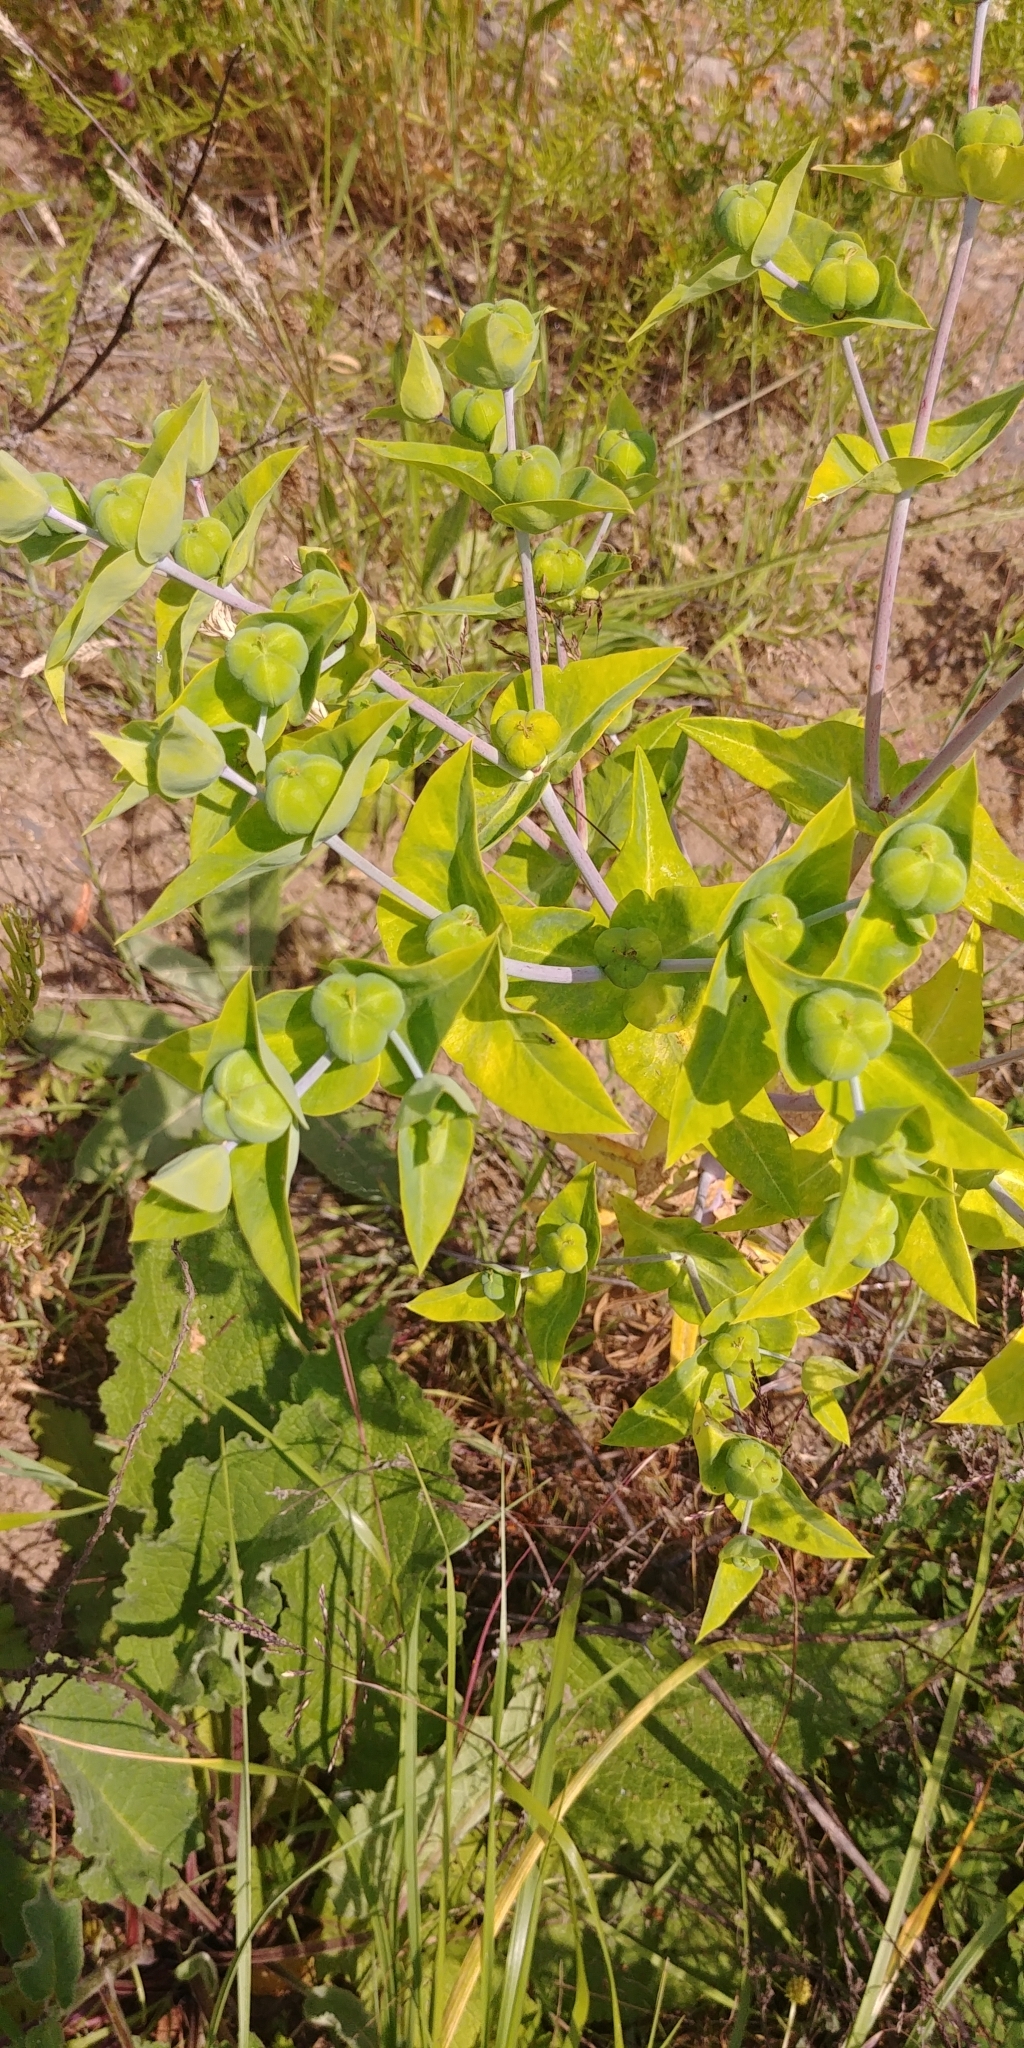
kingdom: Plantae
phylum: Tracheophyta
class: Magnoliopsida
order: Malpighiales
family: Euphorbiaceae
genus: Euphorbia
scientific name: Euphorbia lathyris
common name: Caper spurge
